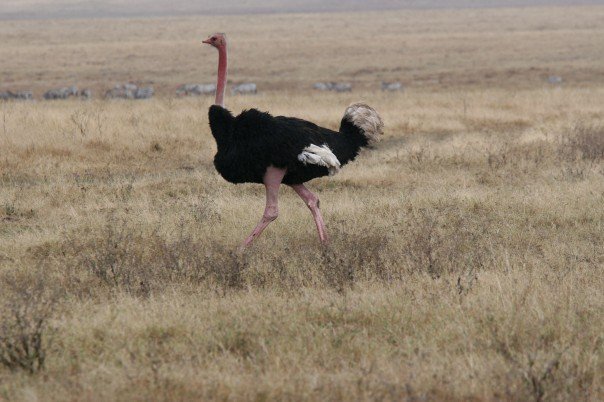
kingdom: Animalia
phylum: Chordata
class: Aves
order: Struthioniformes
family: Struthionidae
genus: Struthio
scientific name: Struthio camelus
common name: Common ostrich
